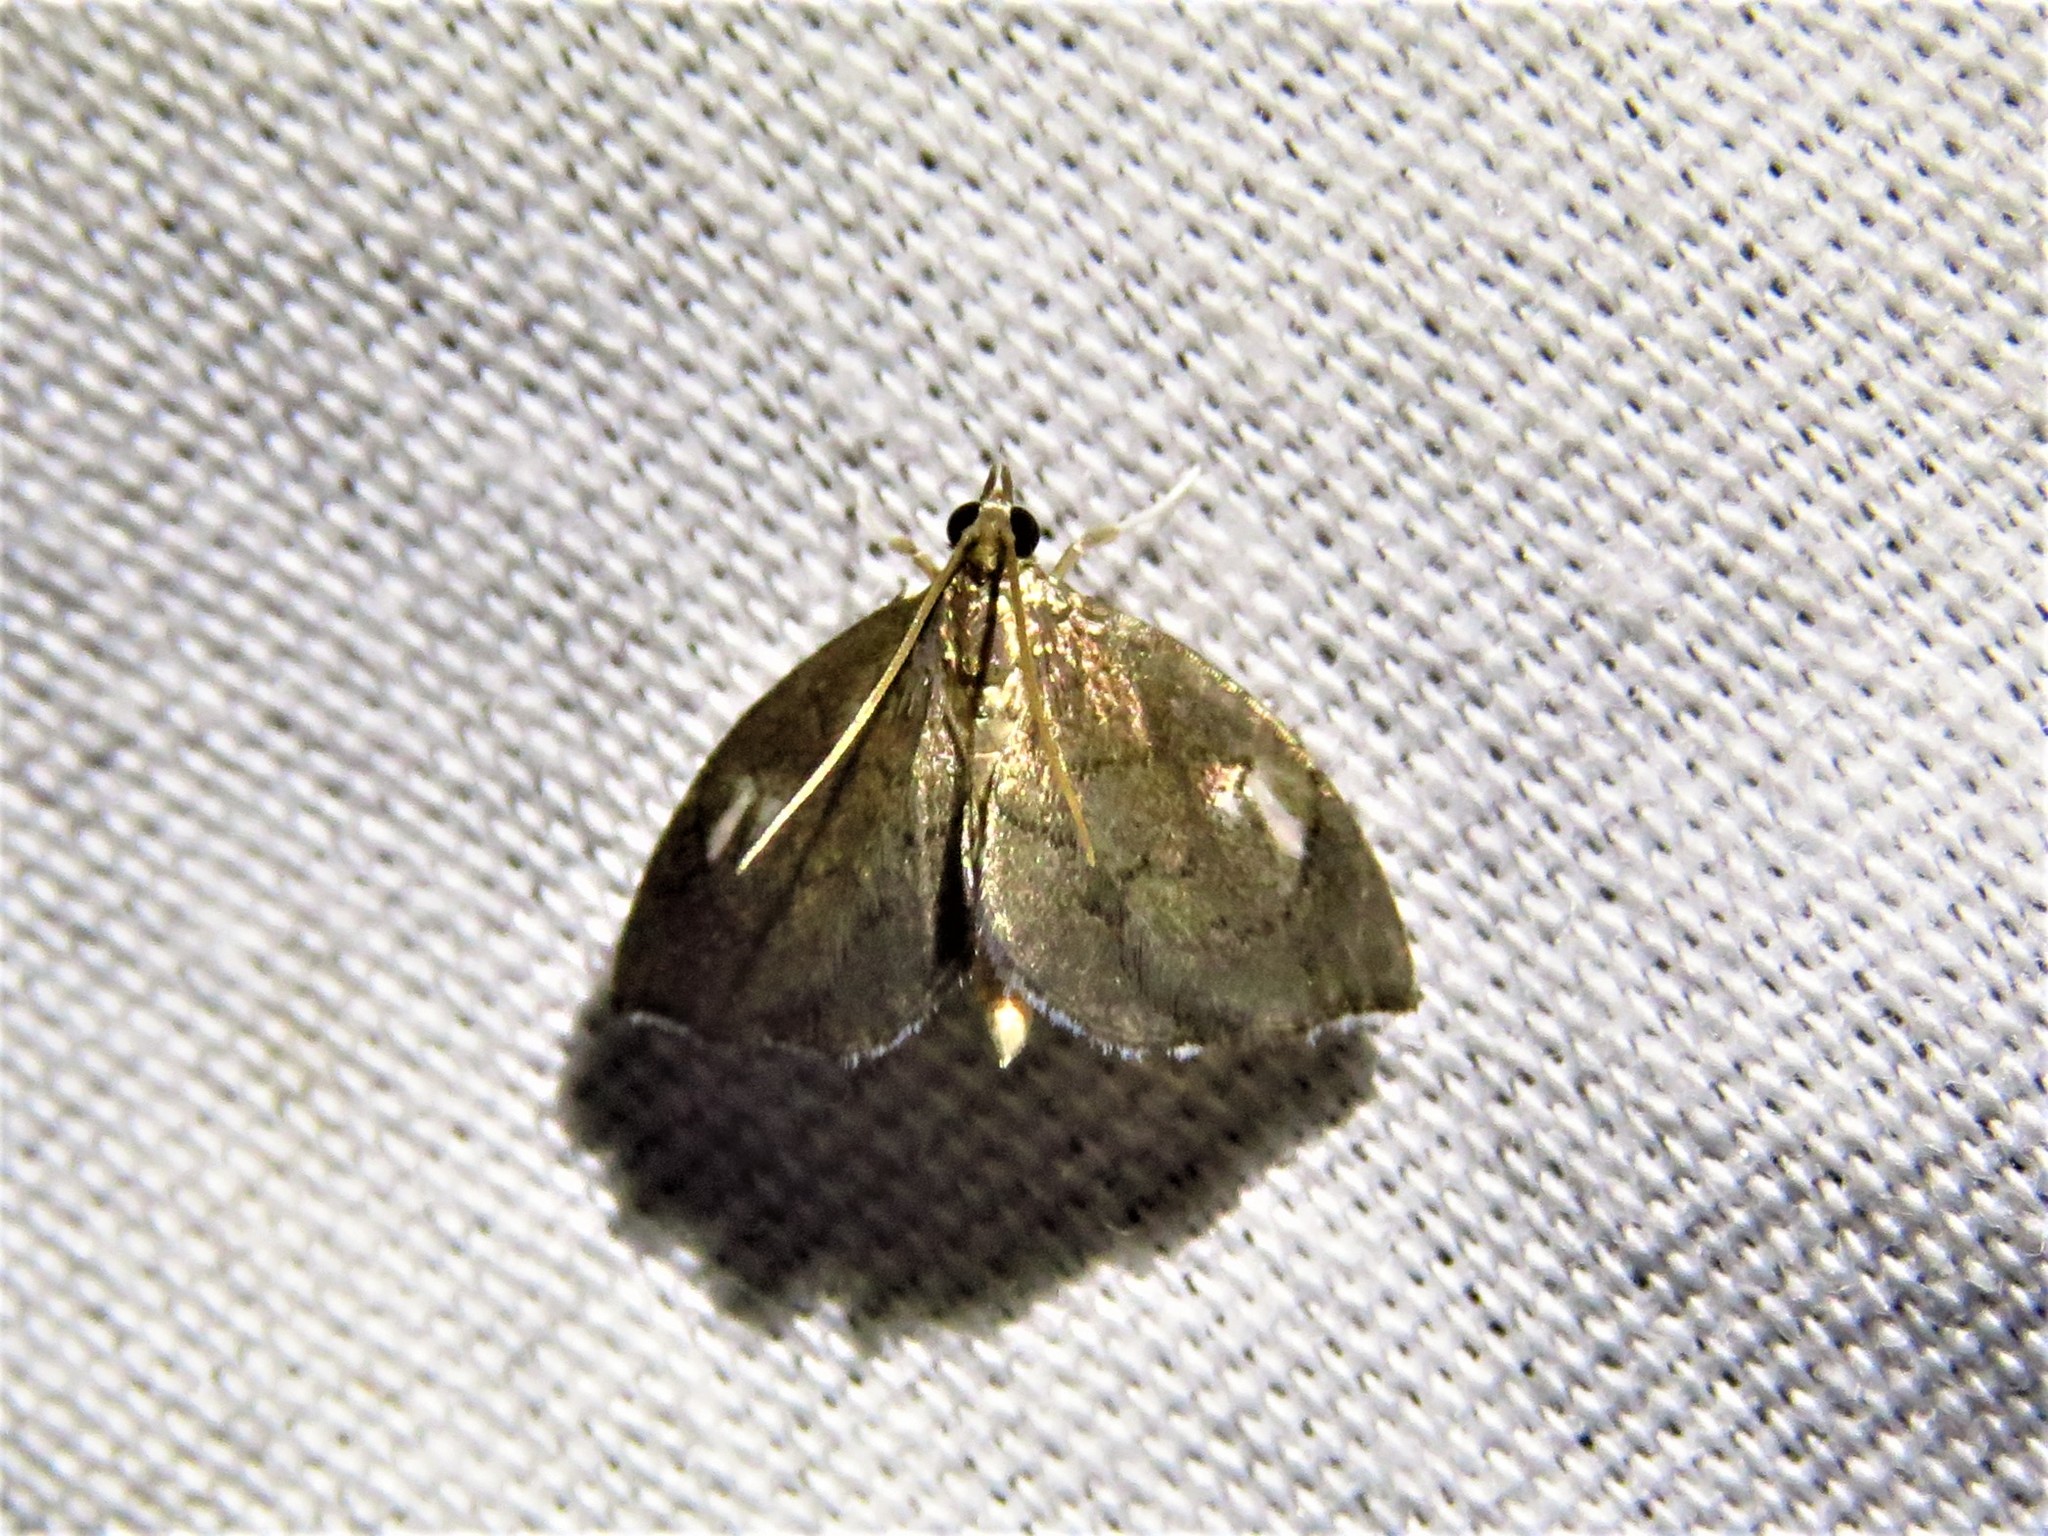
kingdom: Animalia
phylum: Arthropoda
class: Insecta
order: Lepidoptera
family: Crambidae
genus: Perispasta
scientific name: Perispasta caeculalis
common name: Titian peale's moth
